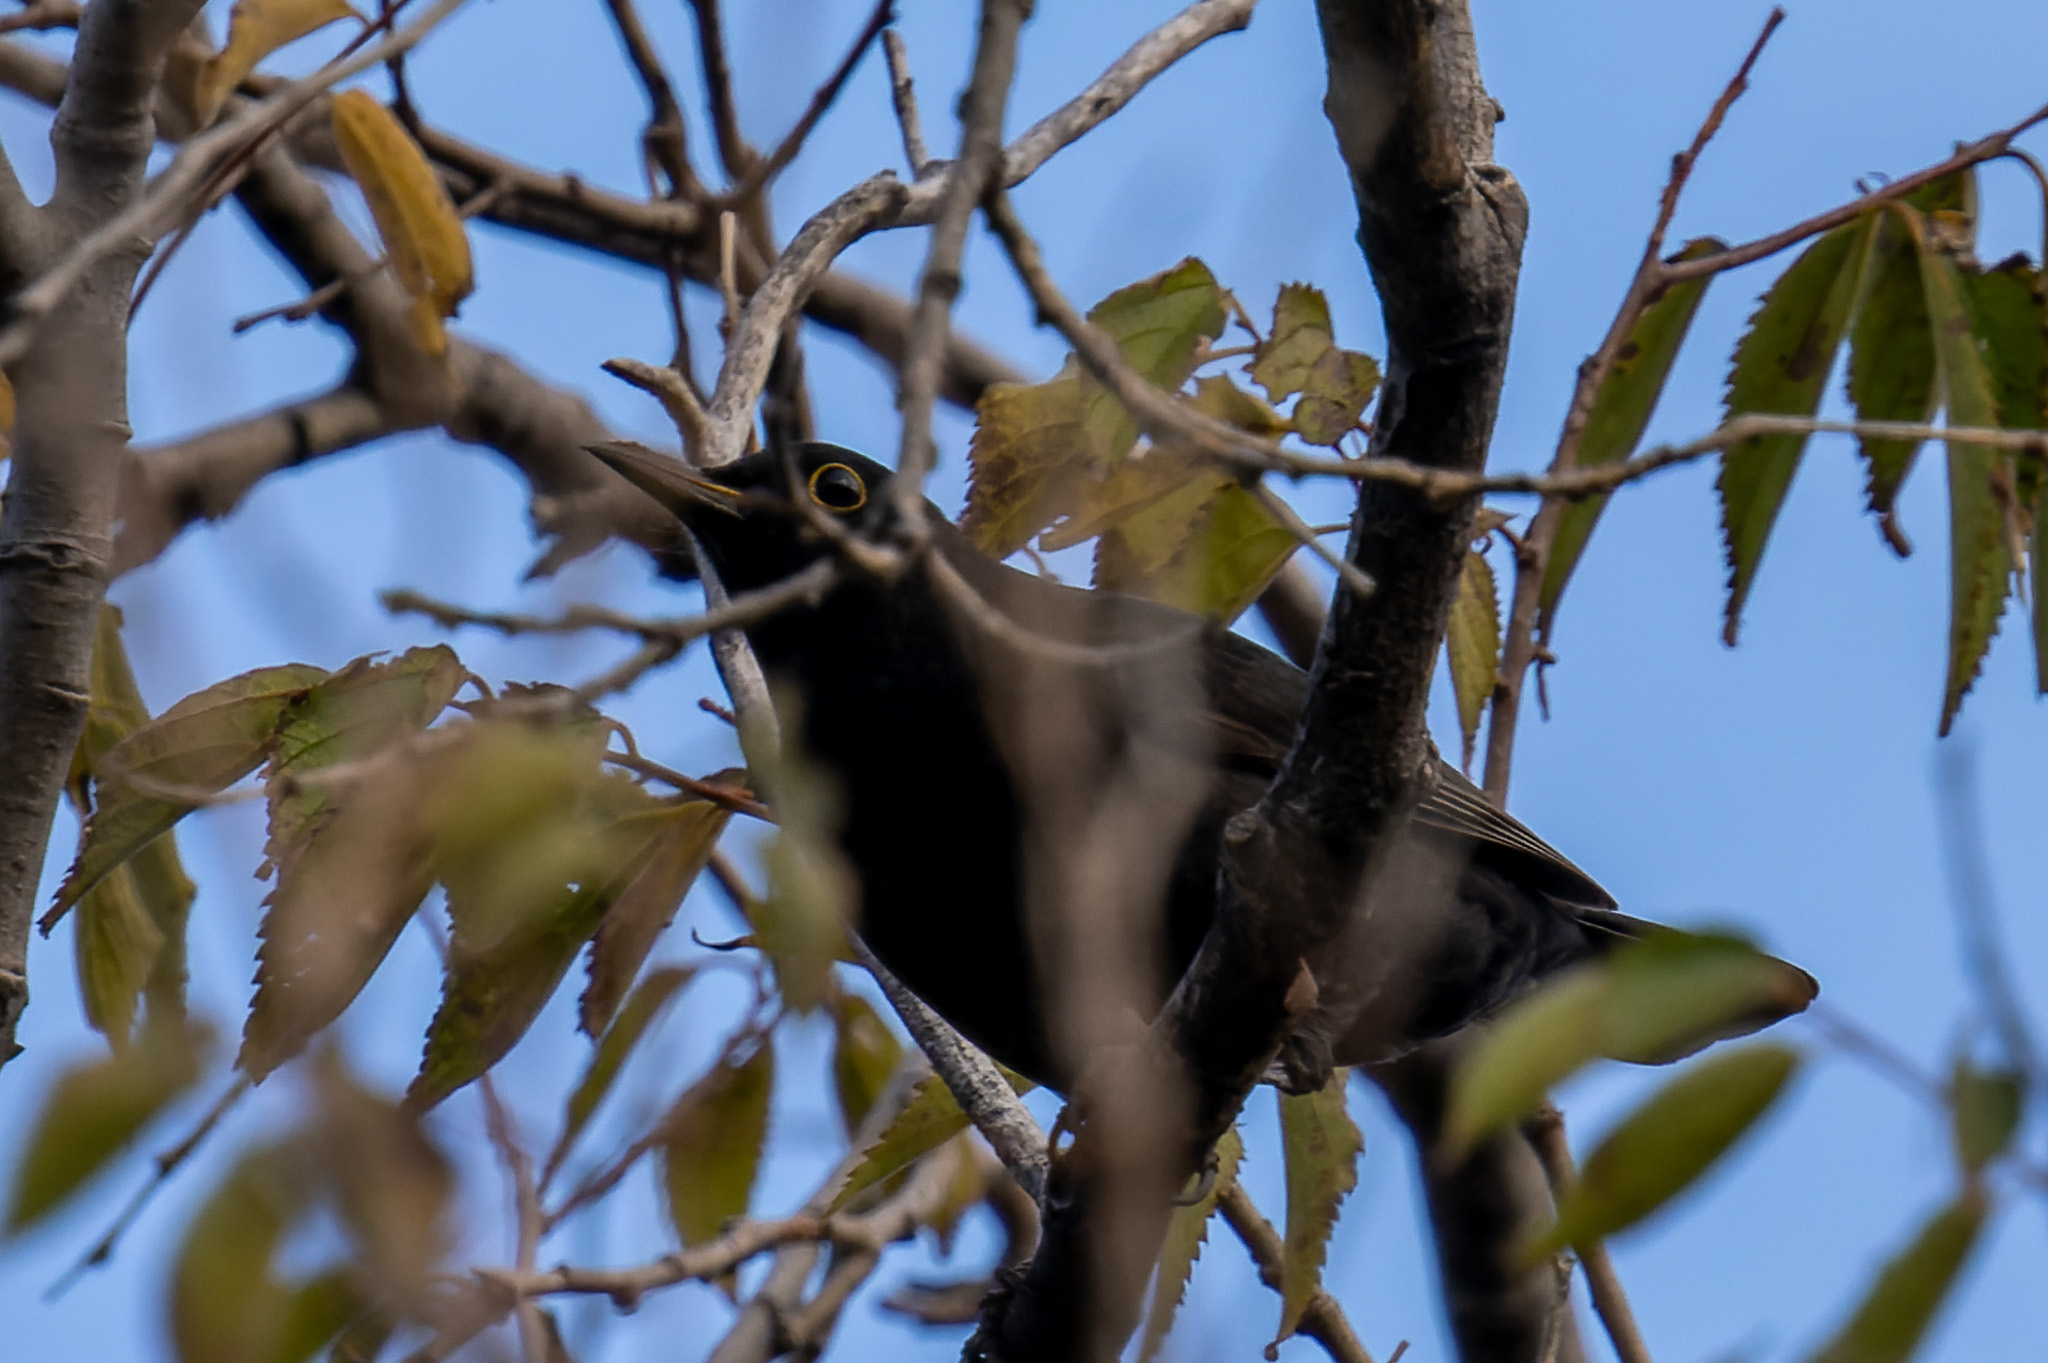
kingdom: Animalia
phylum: Chordata
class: Aves
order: Passeriformes
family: Turdidae
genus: Turdus
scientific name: Turdus merula
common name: Common blackbird
